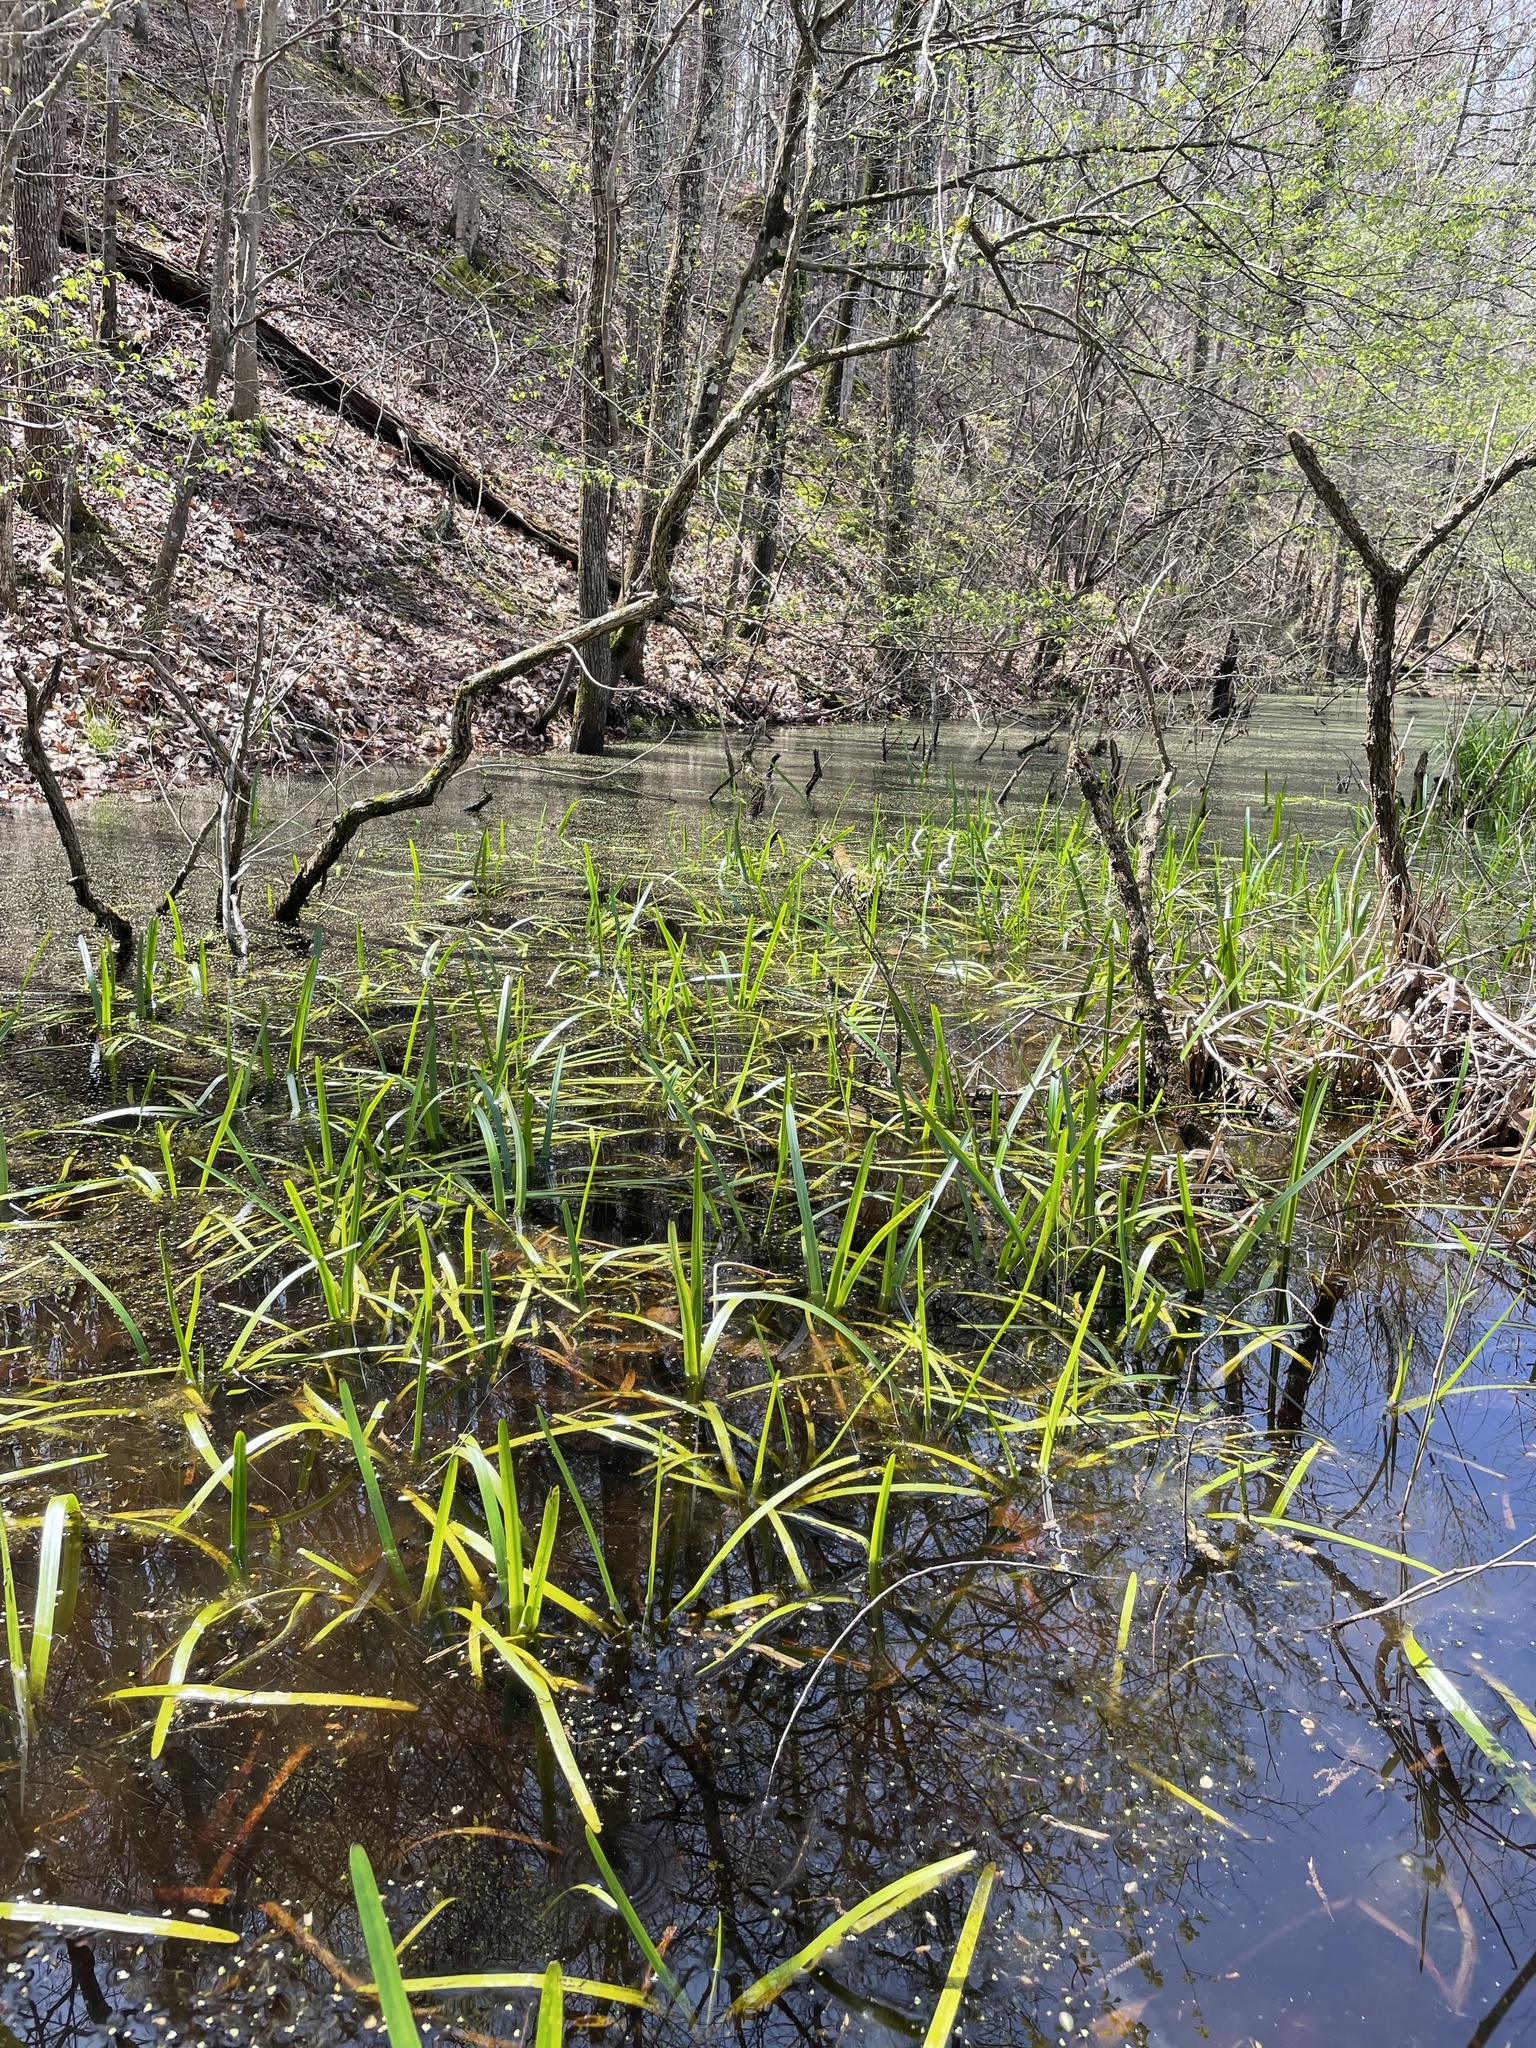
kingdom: Plantae
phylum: Tracheophyta
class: Liliopsida
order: Poales
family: Typhaceae
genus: Sparganium
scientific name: Sparganium americanum
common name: American burreed
